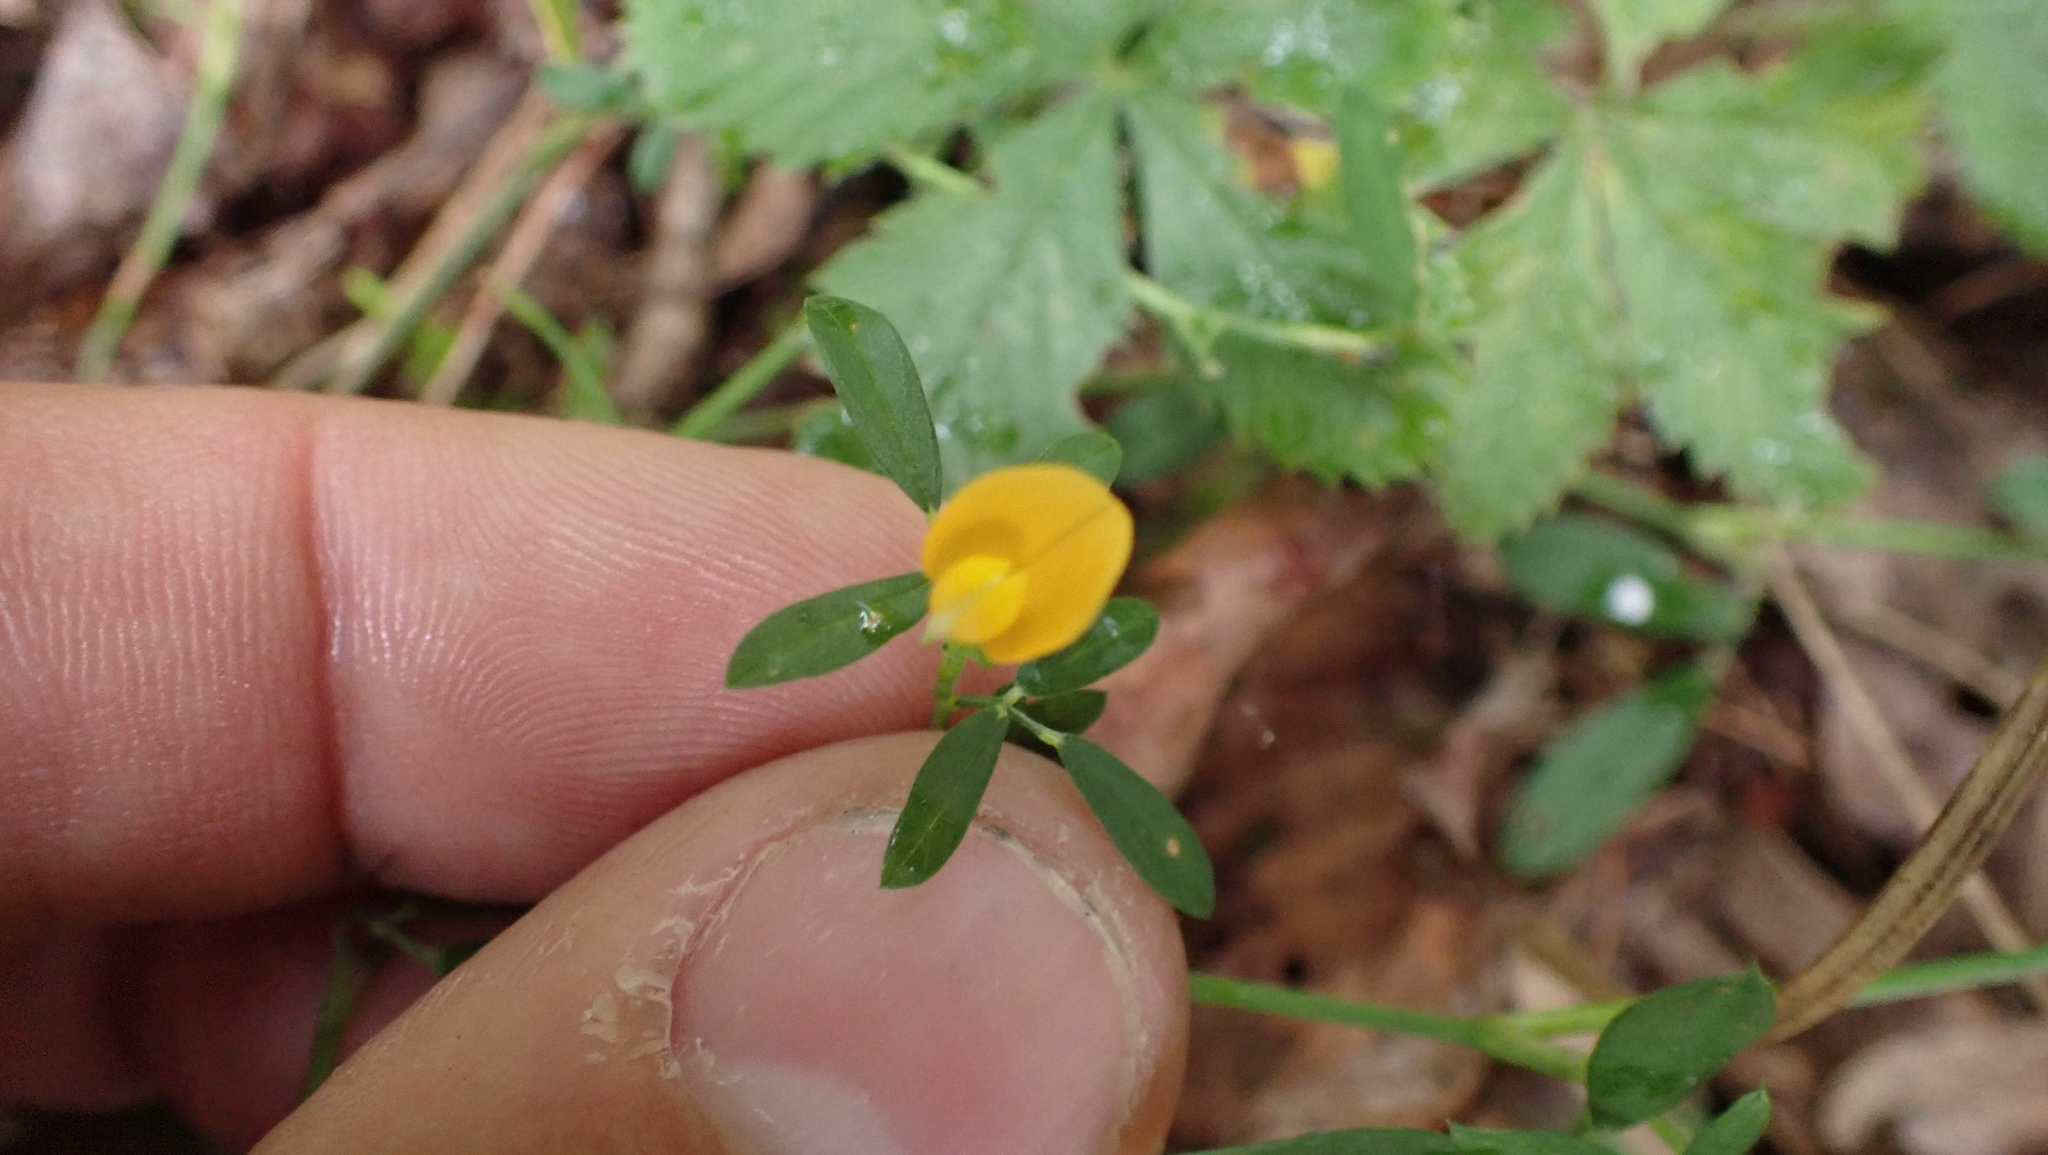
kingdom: Plantae
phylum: Tracheophyta
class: Magnoliopsida
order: Fabales
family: Fabaceae
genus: Stylosanthes
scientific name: Stylosanthes biflora
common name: Two-flower pencil-flower
